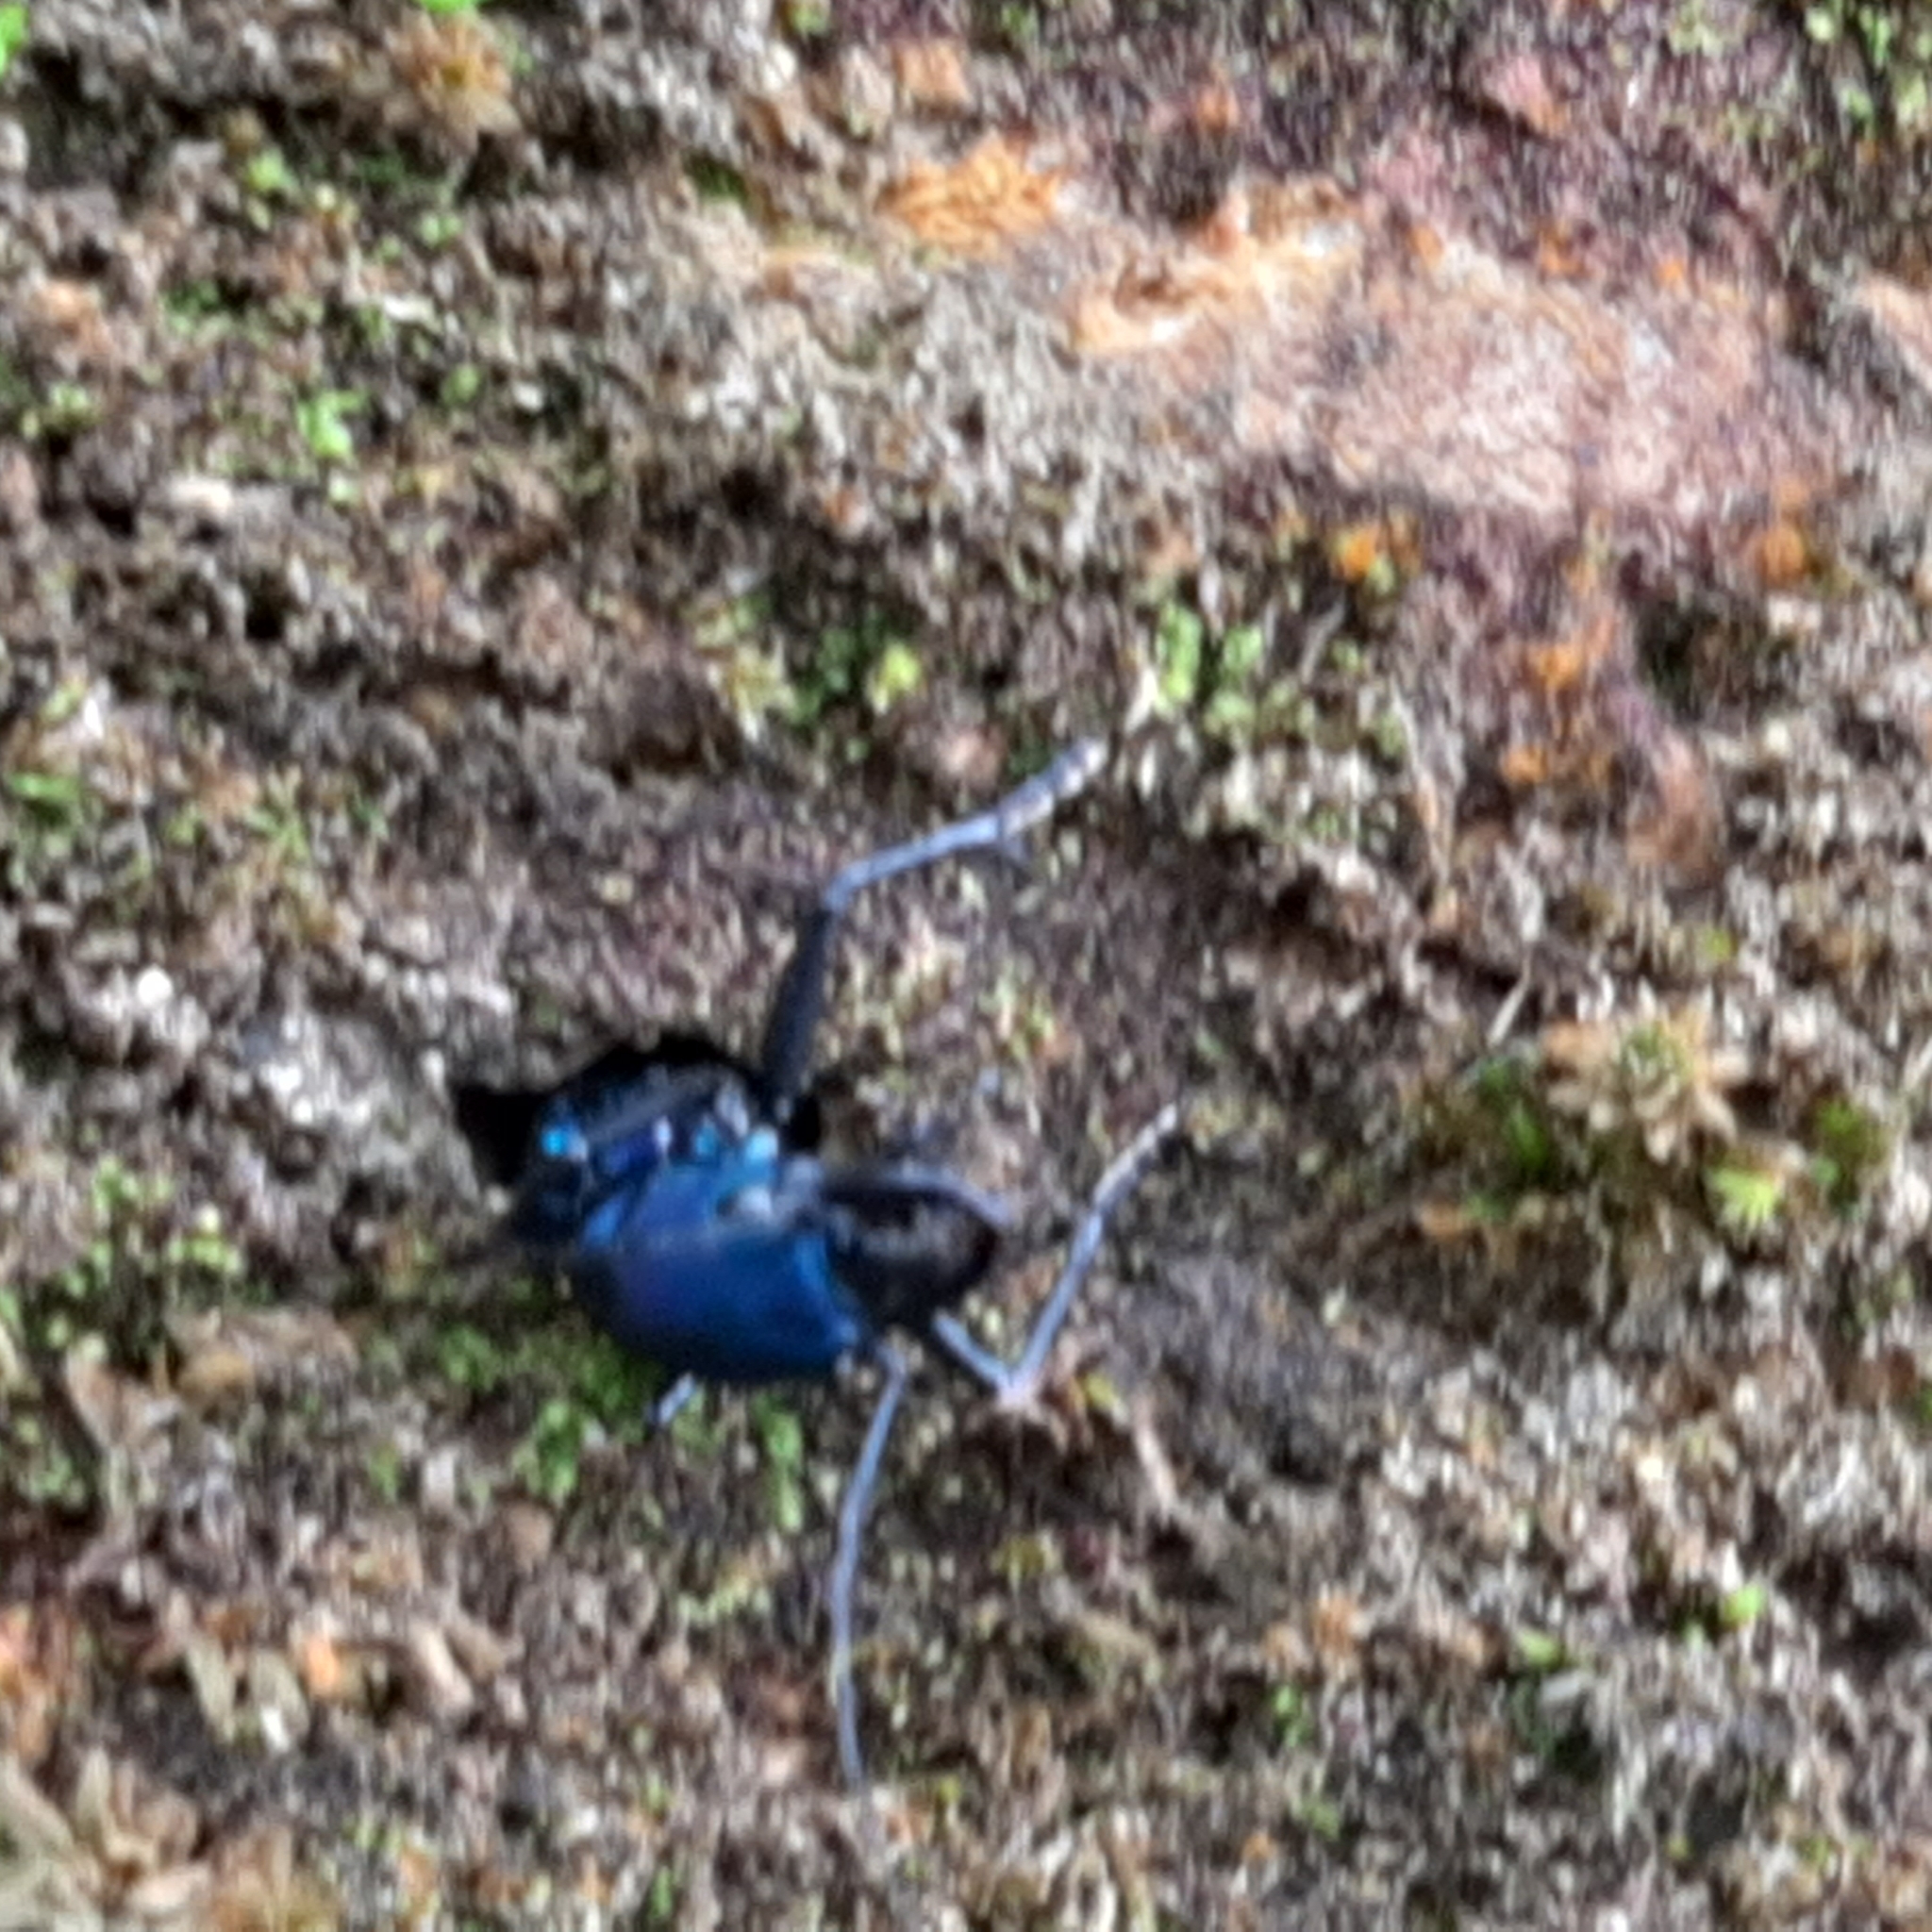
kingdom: Animalia
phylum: Arthropoda
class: Insecta
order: Coleoptera
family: Carabidae
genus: Pseudoxycheila
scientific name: Pseudoxycheila tarsalis
